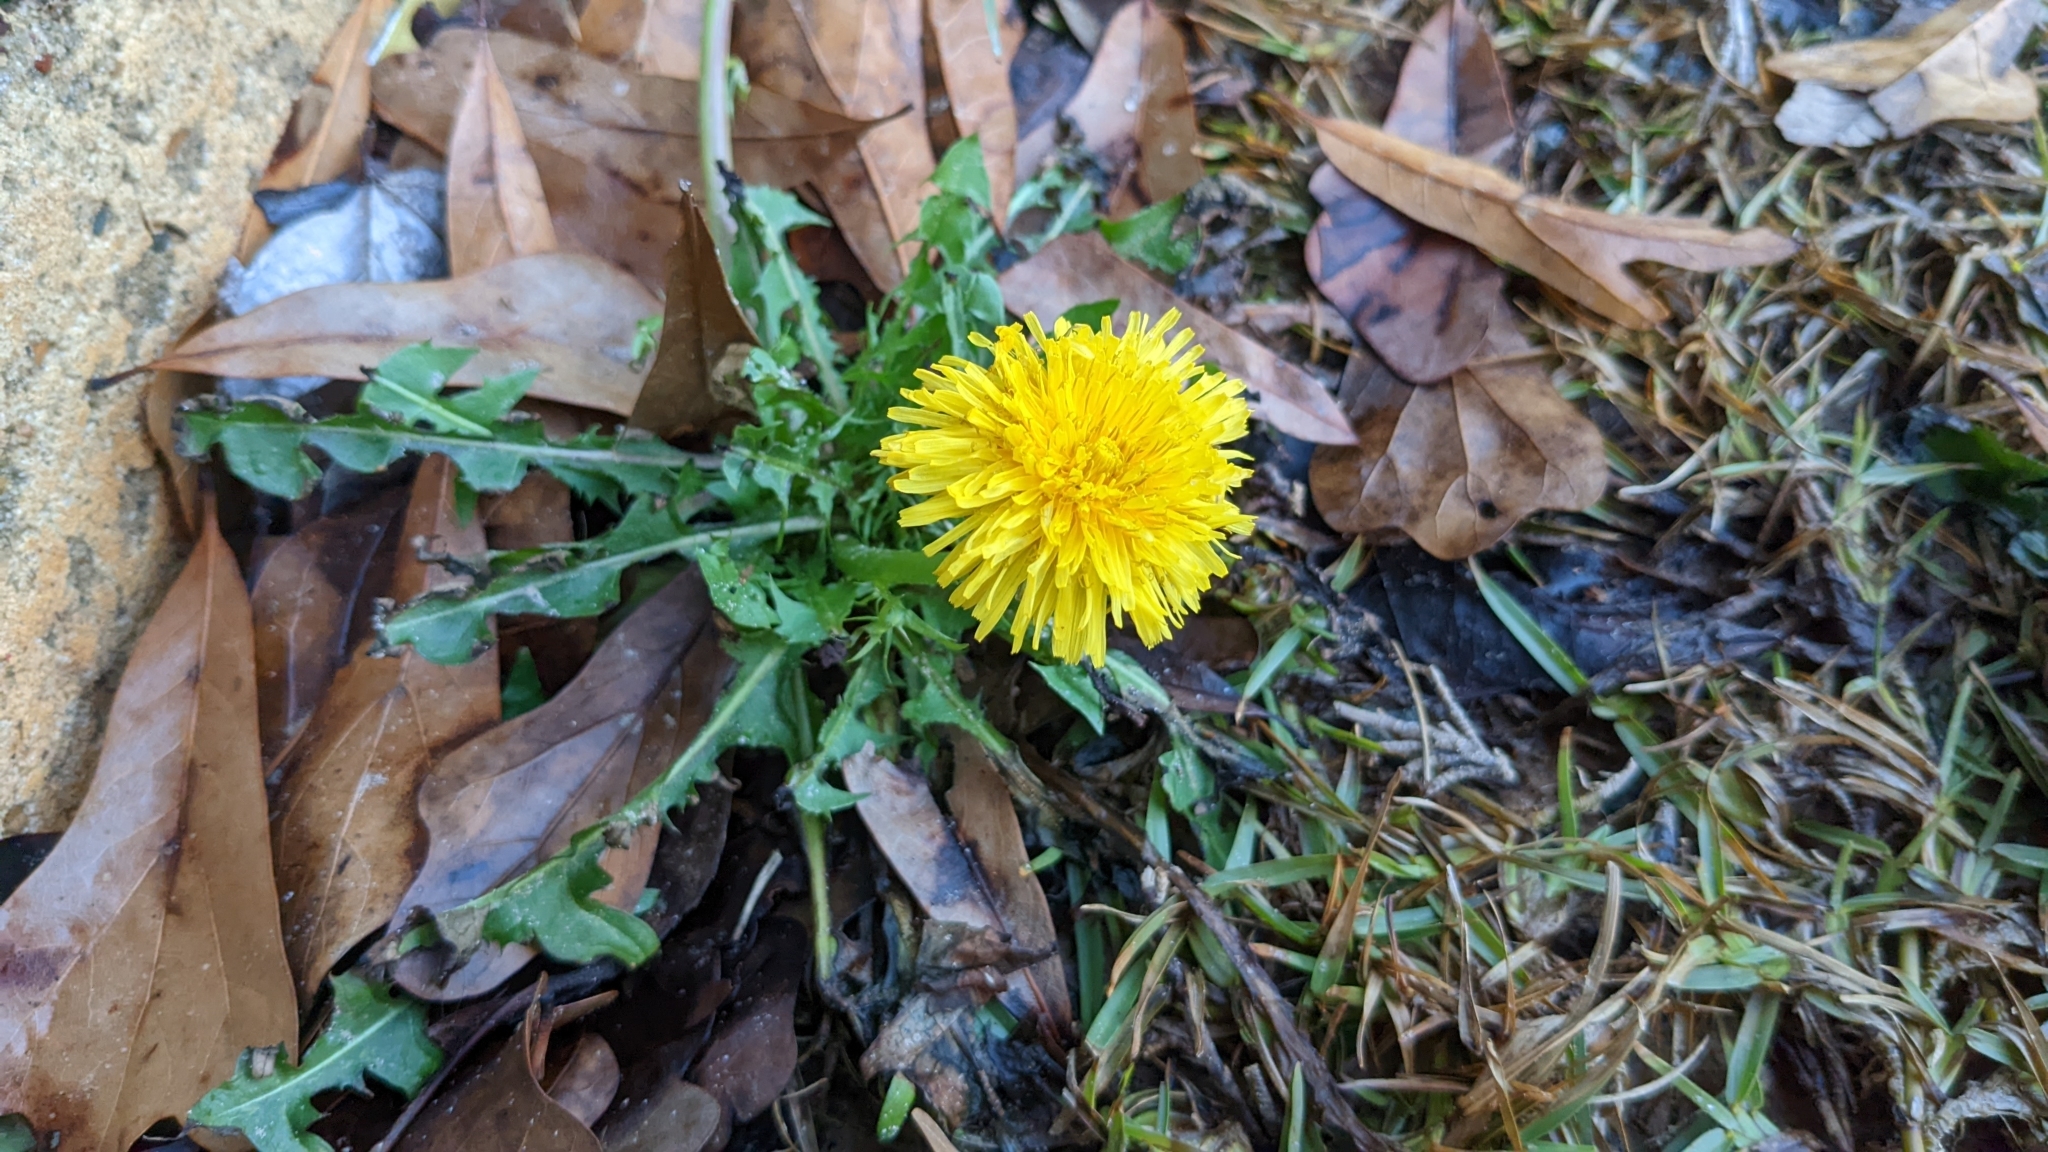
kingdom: Plantae
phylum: Tracheophyta
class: Magnoliopsida
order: Asterales
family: Asteraceae
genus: Taraxacum
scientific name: Taraxacum
